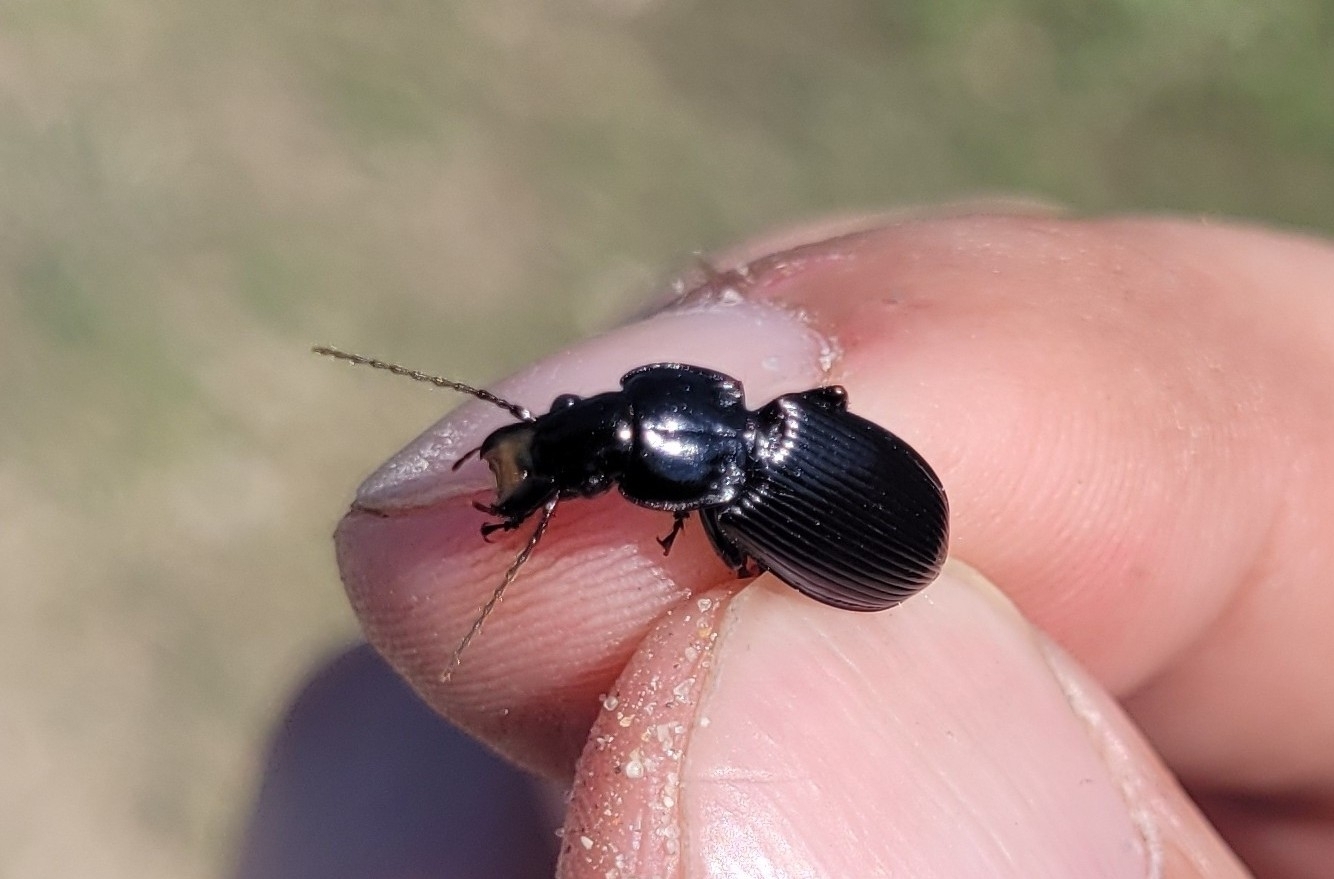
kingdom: Animalia
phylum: Arthropoda
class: Insecta
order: Coleoptera
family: Carabidae
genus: Pterostichus
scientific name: Pterostichus melanarius
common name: European dark harp ground beetle
